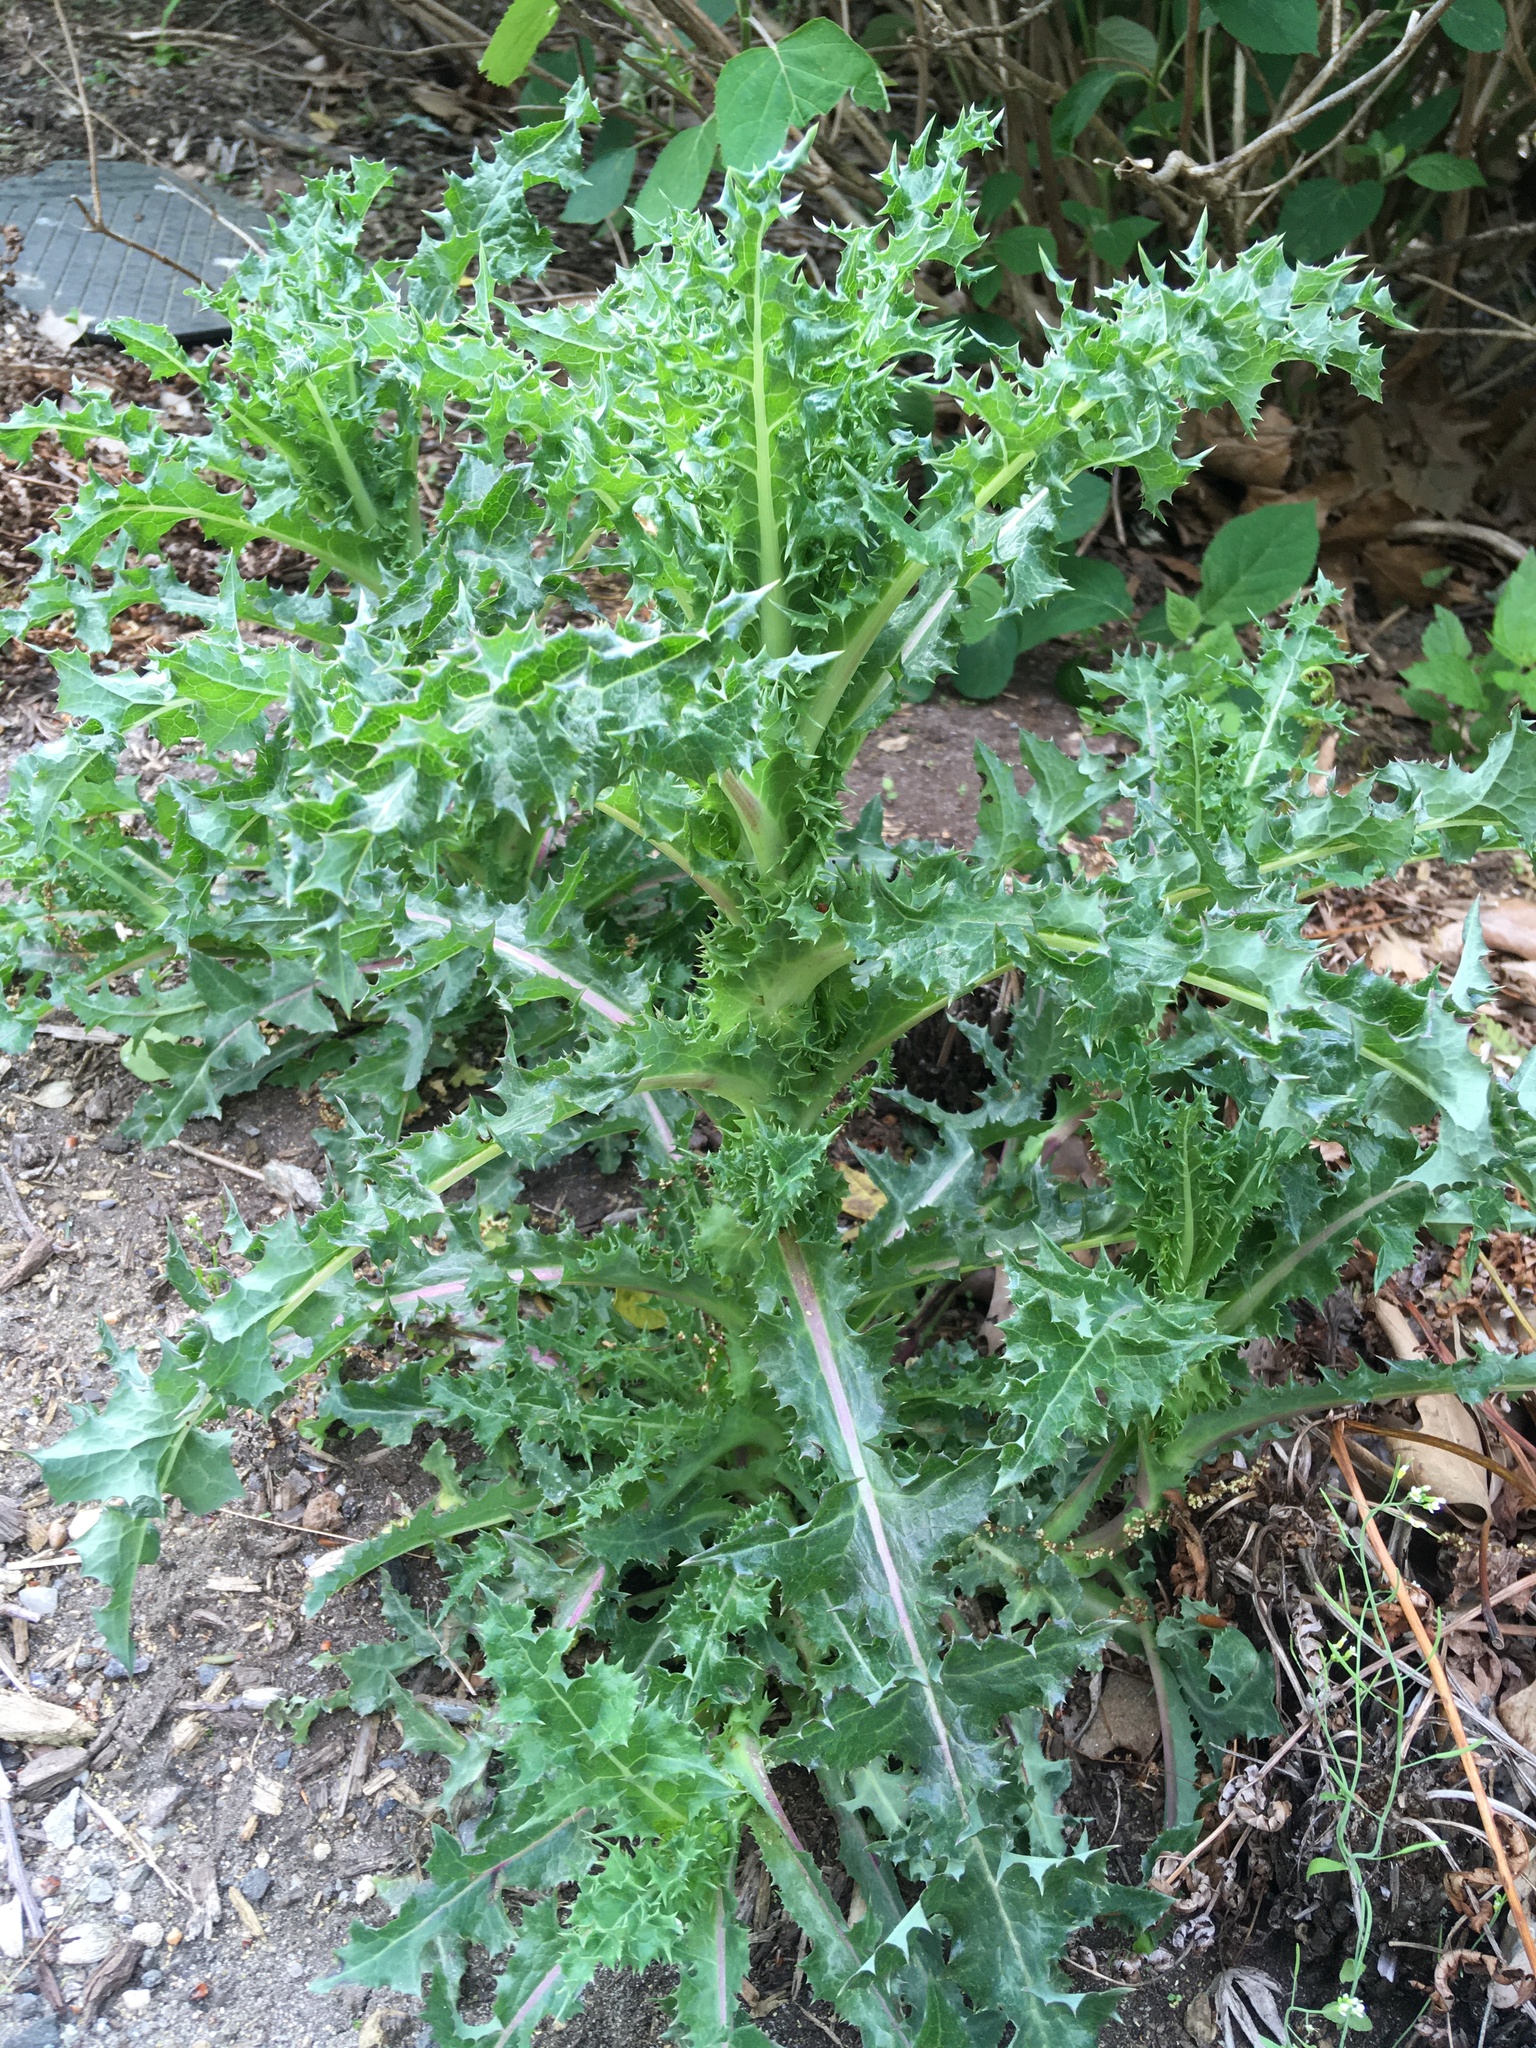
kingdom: Plantae
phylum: Tracheophyta
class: Magnoliopsida
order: Asterales
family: Asteraceae
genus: Sonchus
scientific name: Sonchus asper
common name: Prickly sow-thistle
